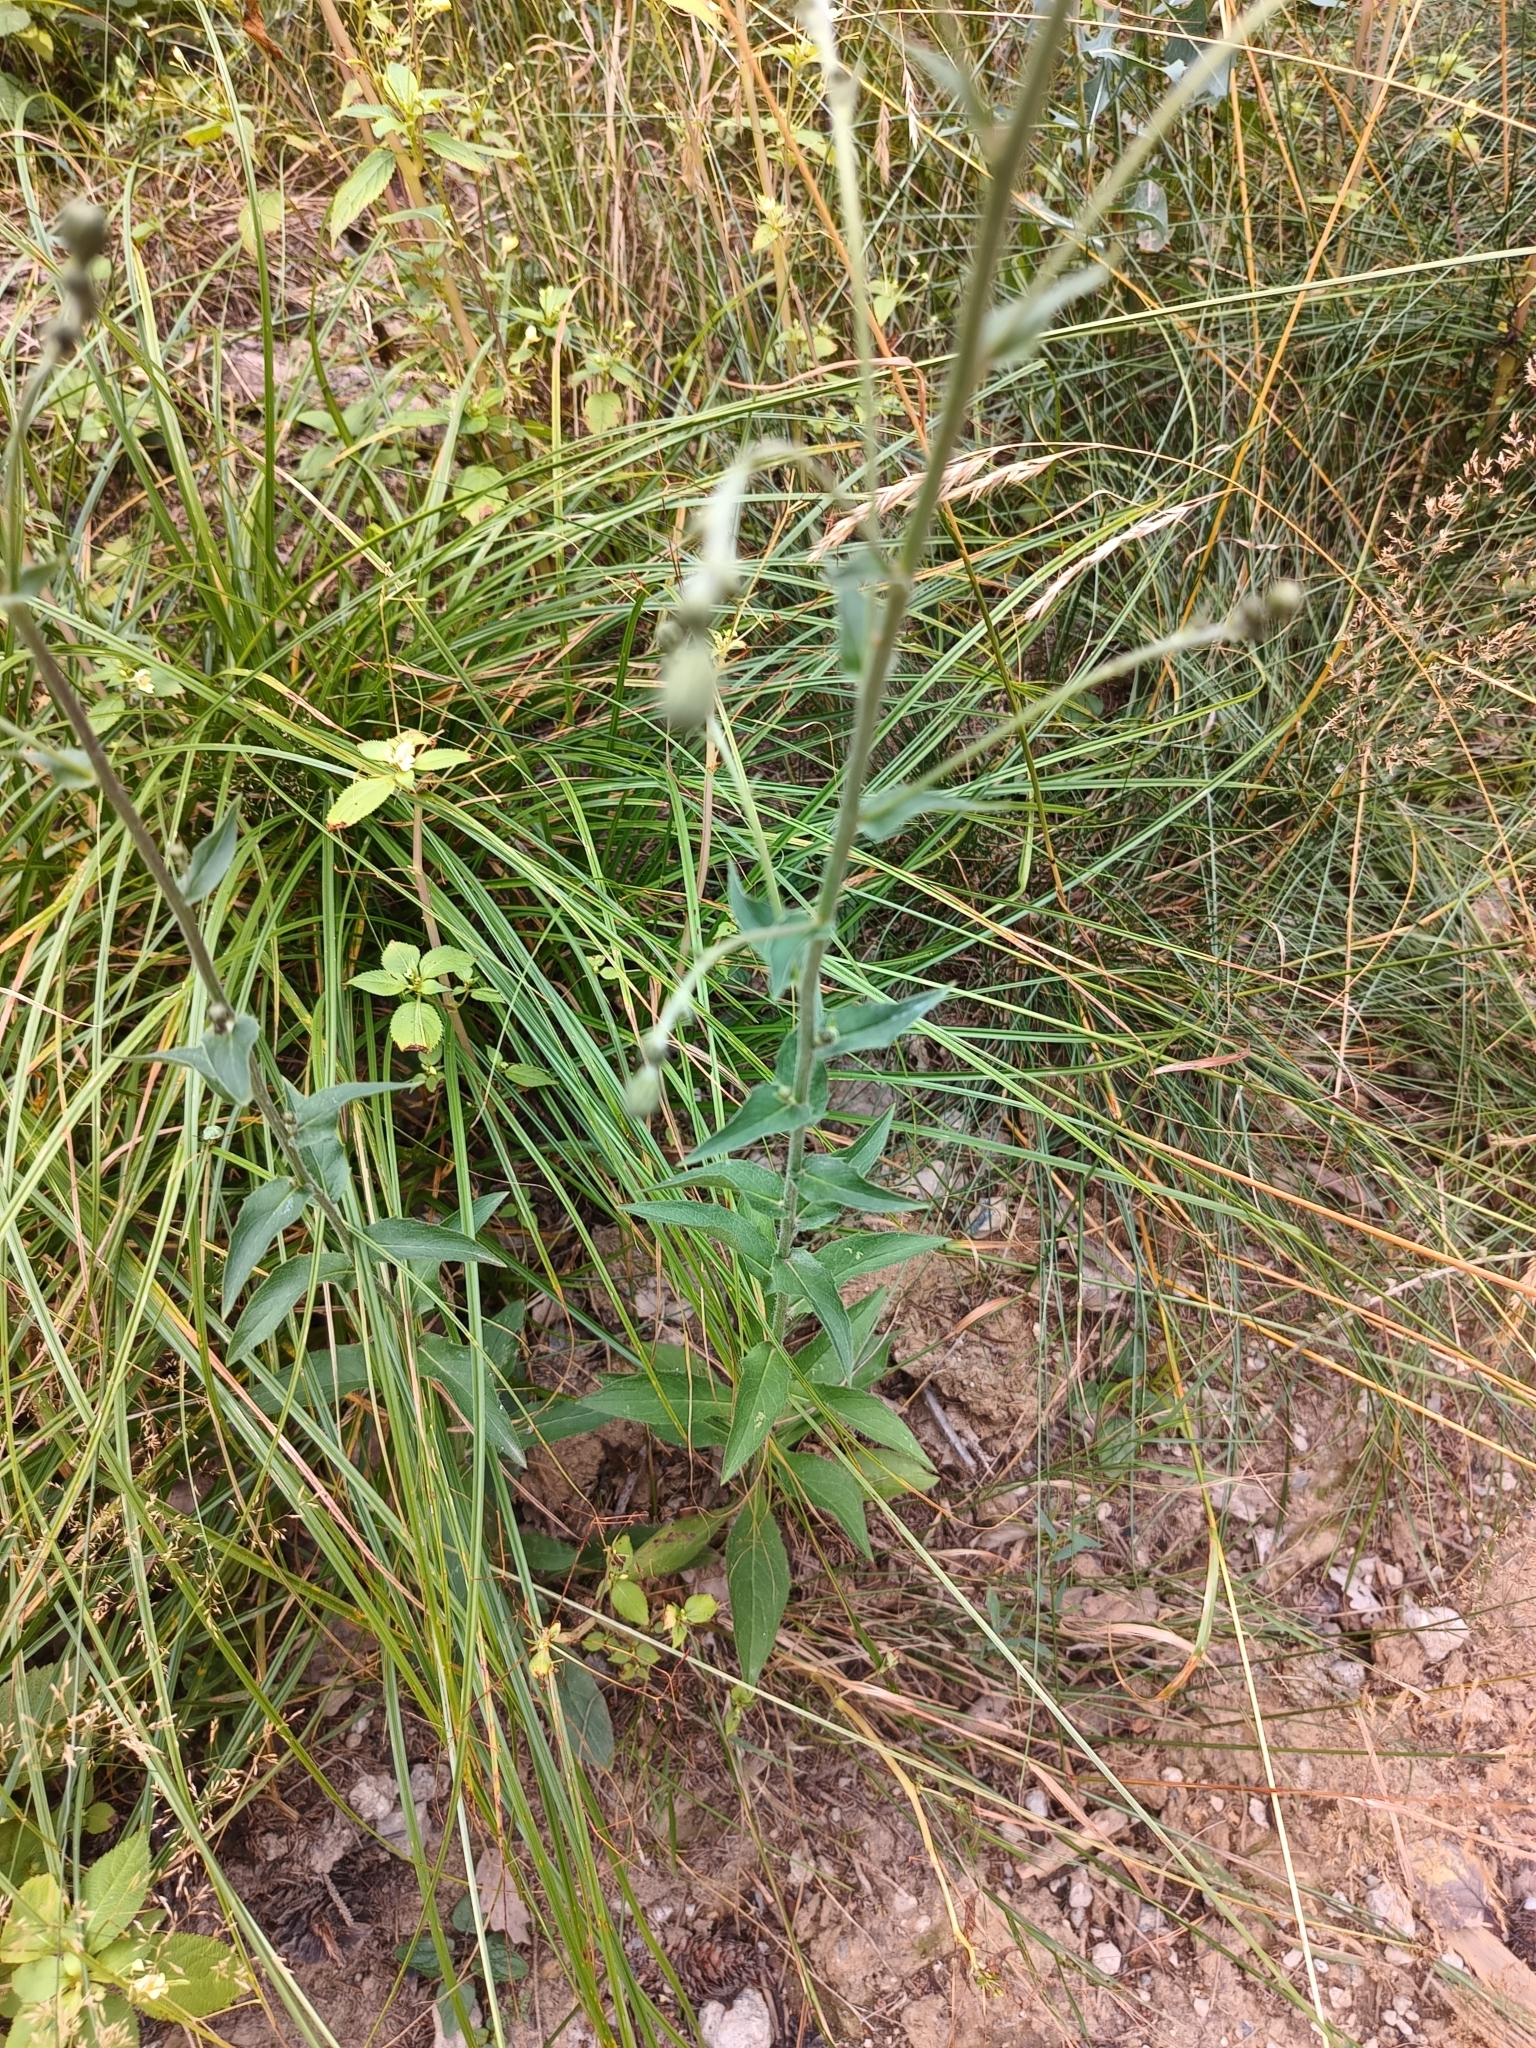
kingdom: Plantae
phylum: Tracheophyta
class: Magnoliopsida
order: Asterales
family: Asteraceae
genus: Hieracium
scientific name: Hieracium sabaudum
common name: New england hawkweed
